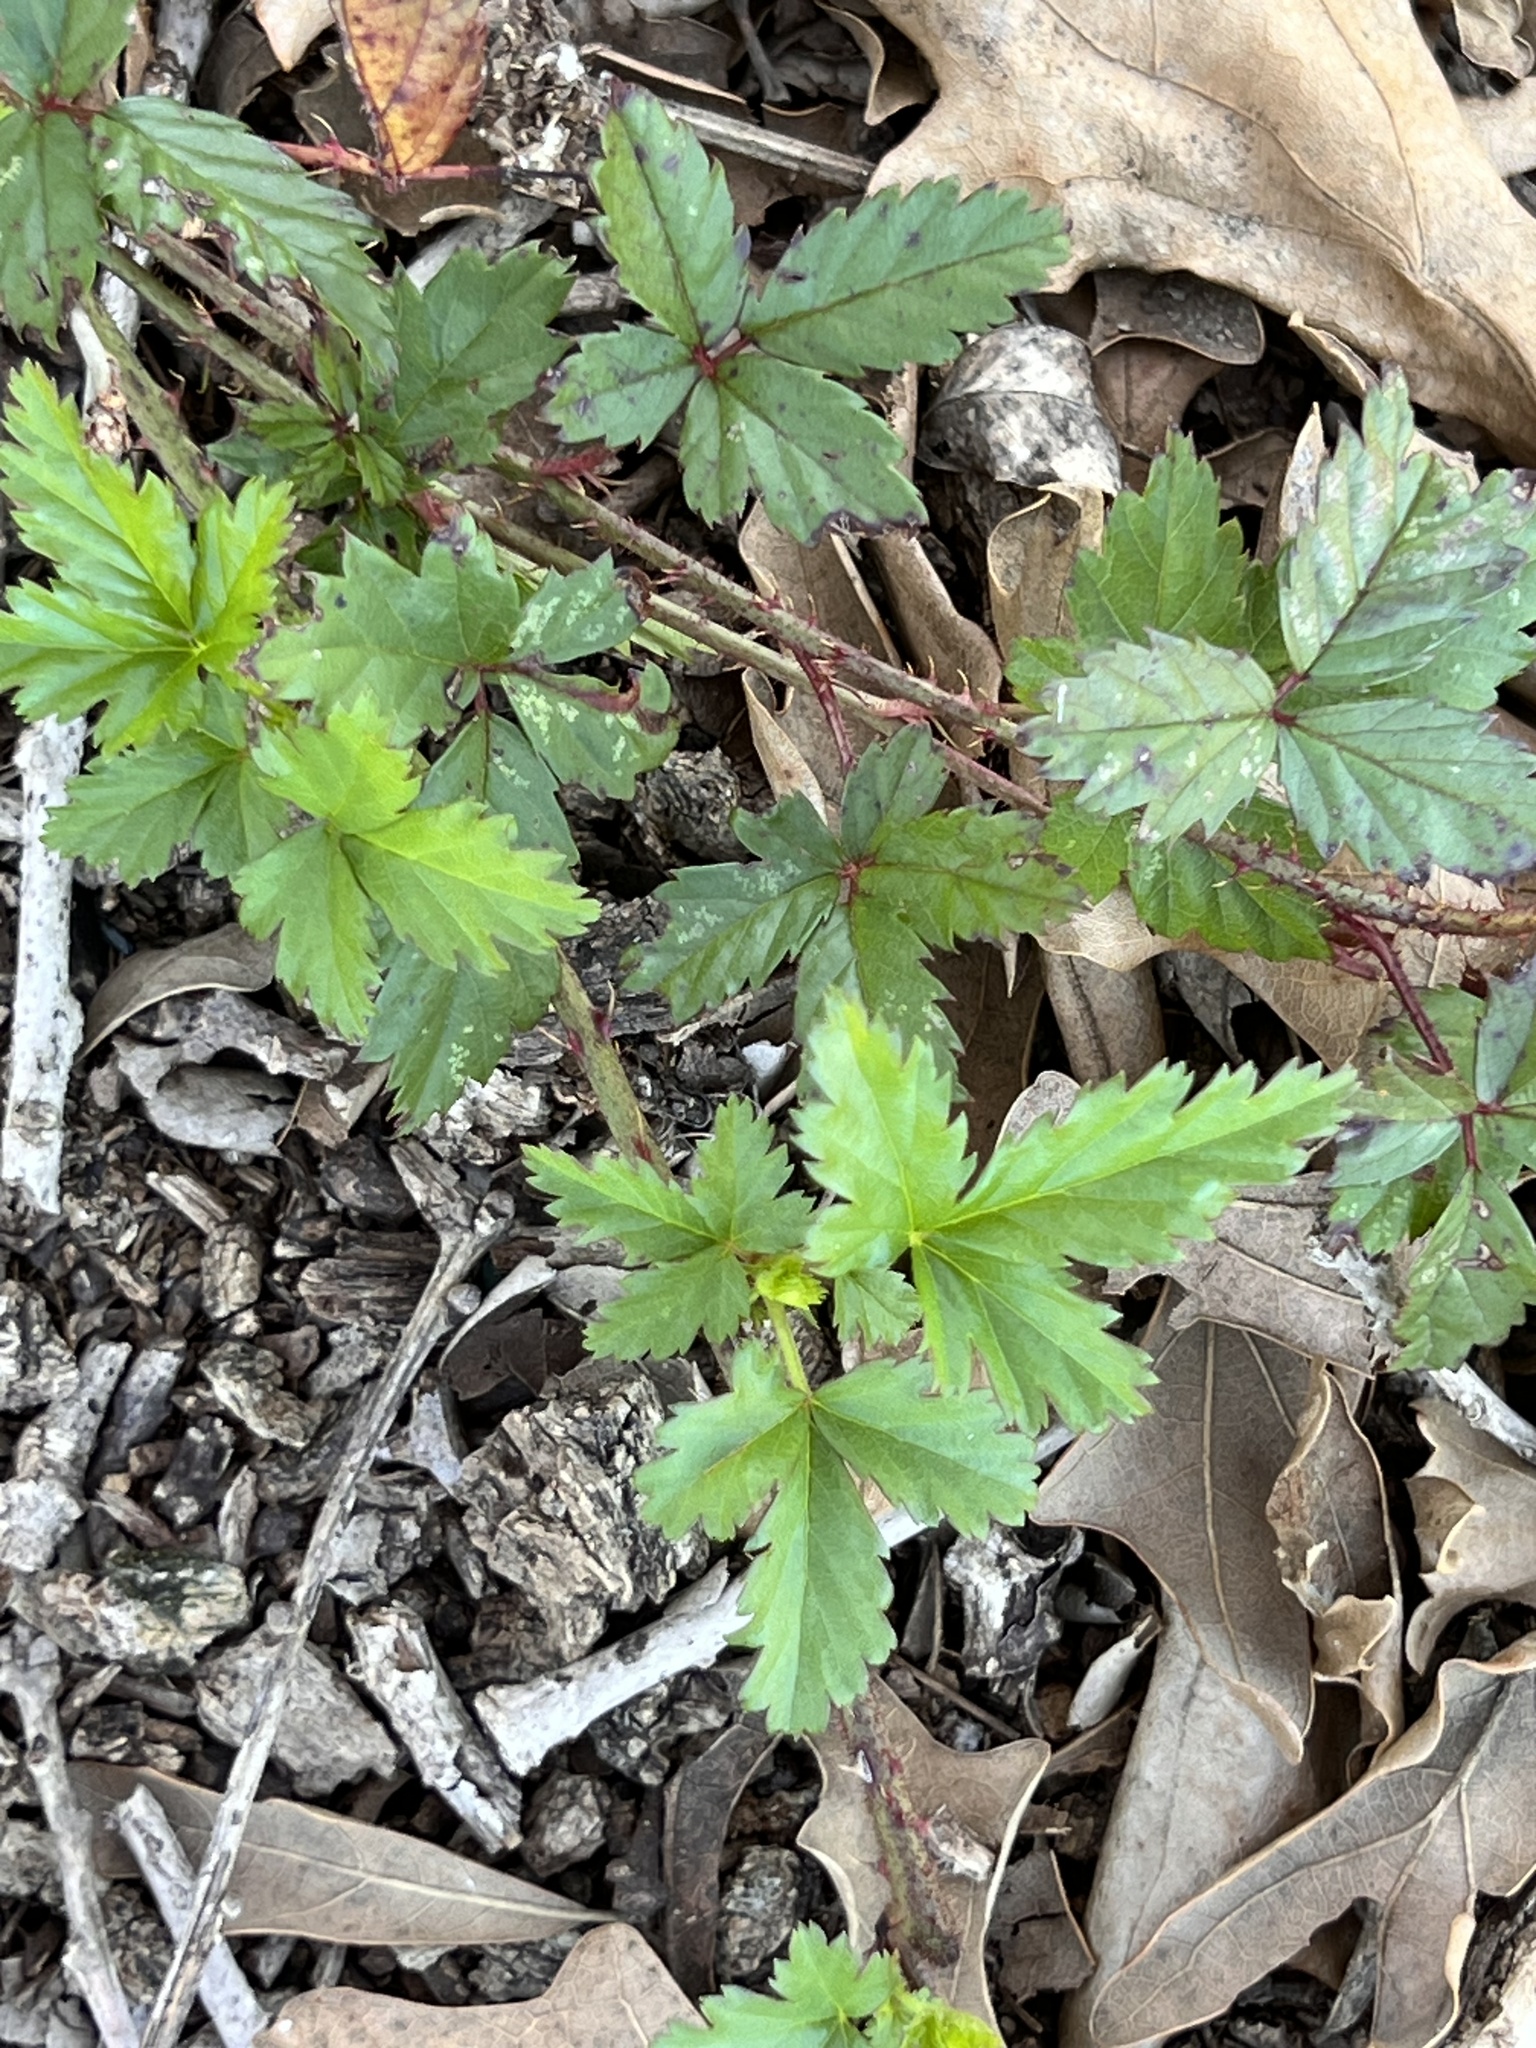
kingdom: Plantae
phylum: Tracheophyta
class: Magnoliopsida
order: Rosales
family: Rosaceae
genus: Rubus
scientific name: Rubus trivialis
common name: Southern dewberry
